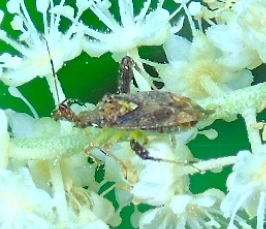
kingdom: Animalia
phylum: Arthropoda
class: Insecta
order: Hemiptera
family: Miridae
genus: Neurocolpus
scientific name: Neurocolpus
